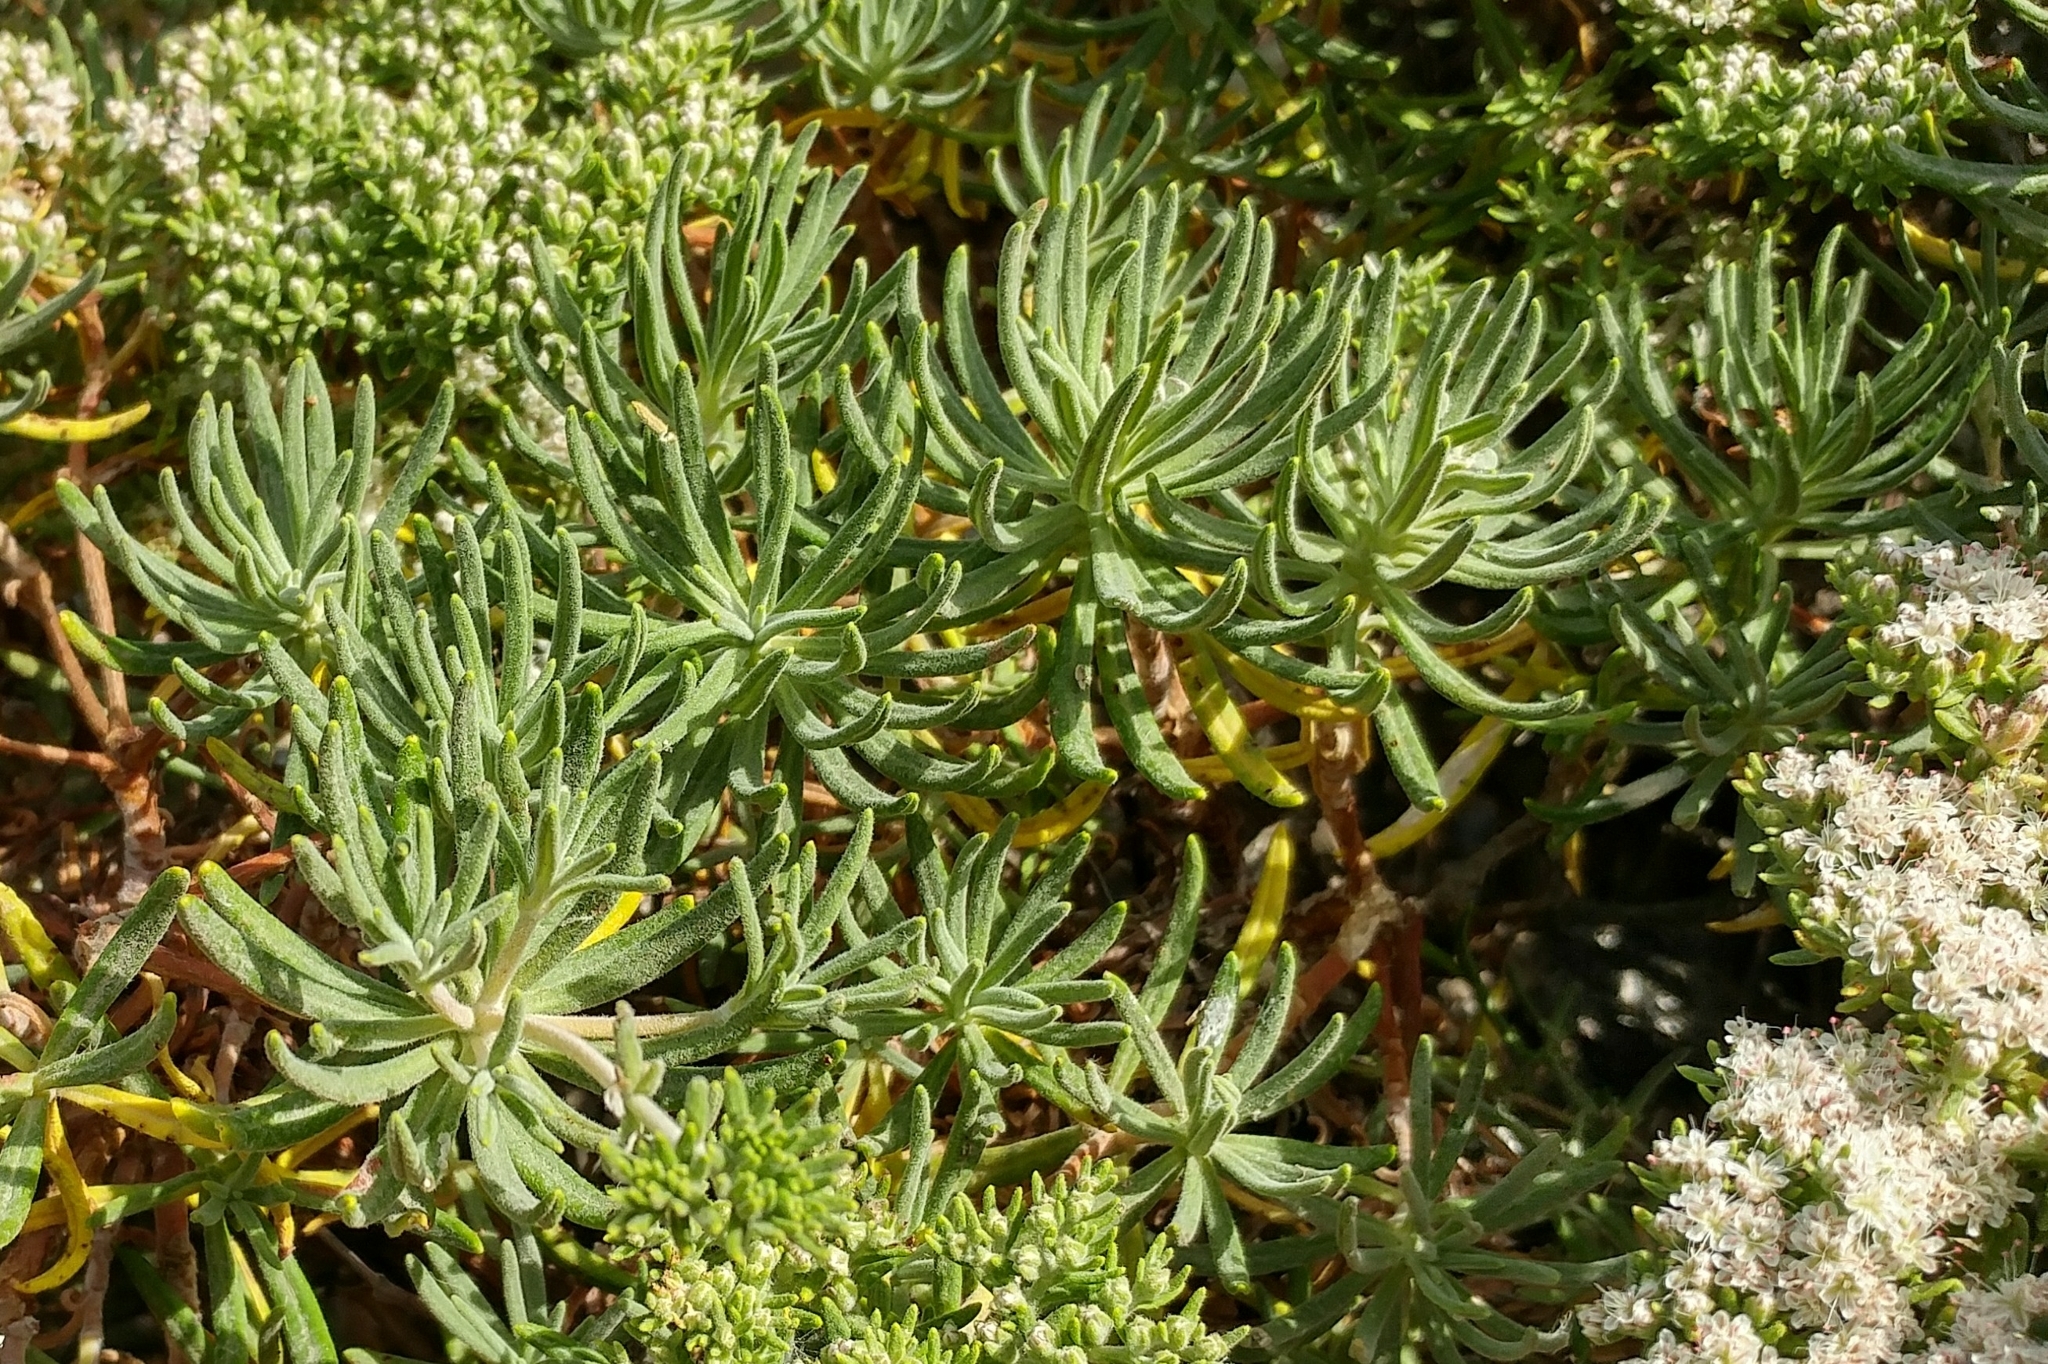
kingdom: Plantae
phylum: Tracheophyta
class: Magnoliopsida
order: Caryophyllales
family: Polygonaceae
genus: Eriogonum
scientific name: Eriogonum arborescens
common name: Island buckwheat
